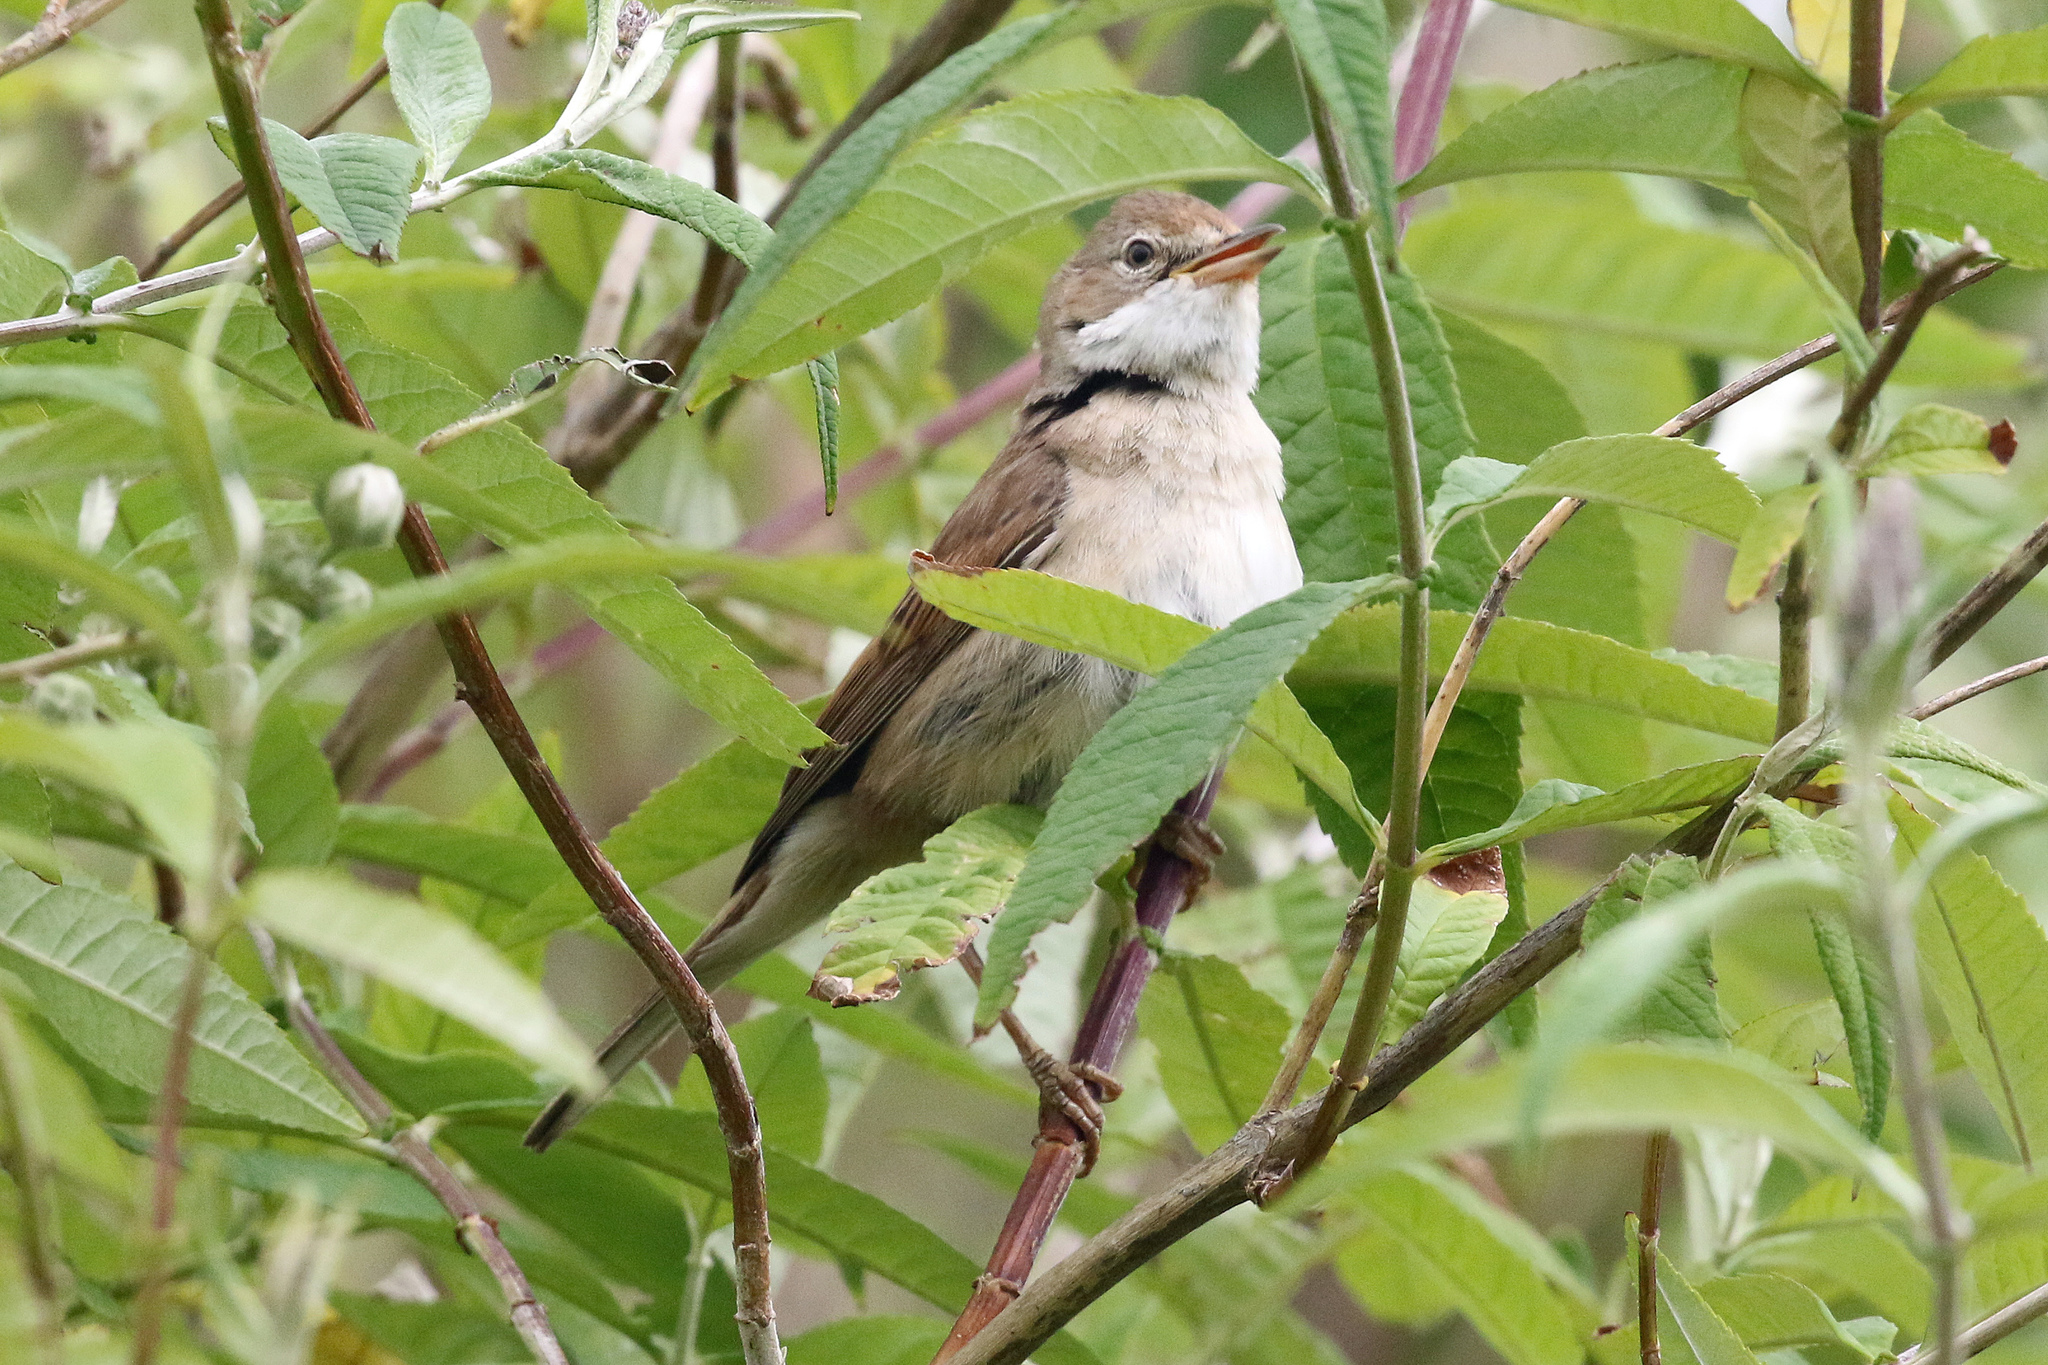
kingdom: Animalia
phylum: Chordata
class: Aves
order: Passeriformes
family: Sylviidae
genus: Sylvia
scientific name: Sylvia communis
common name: Common whitethroat
